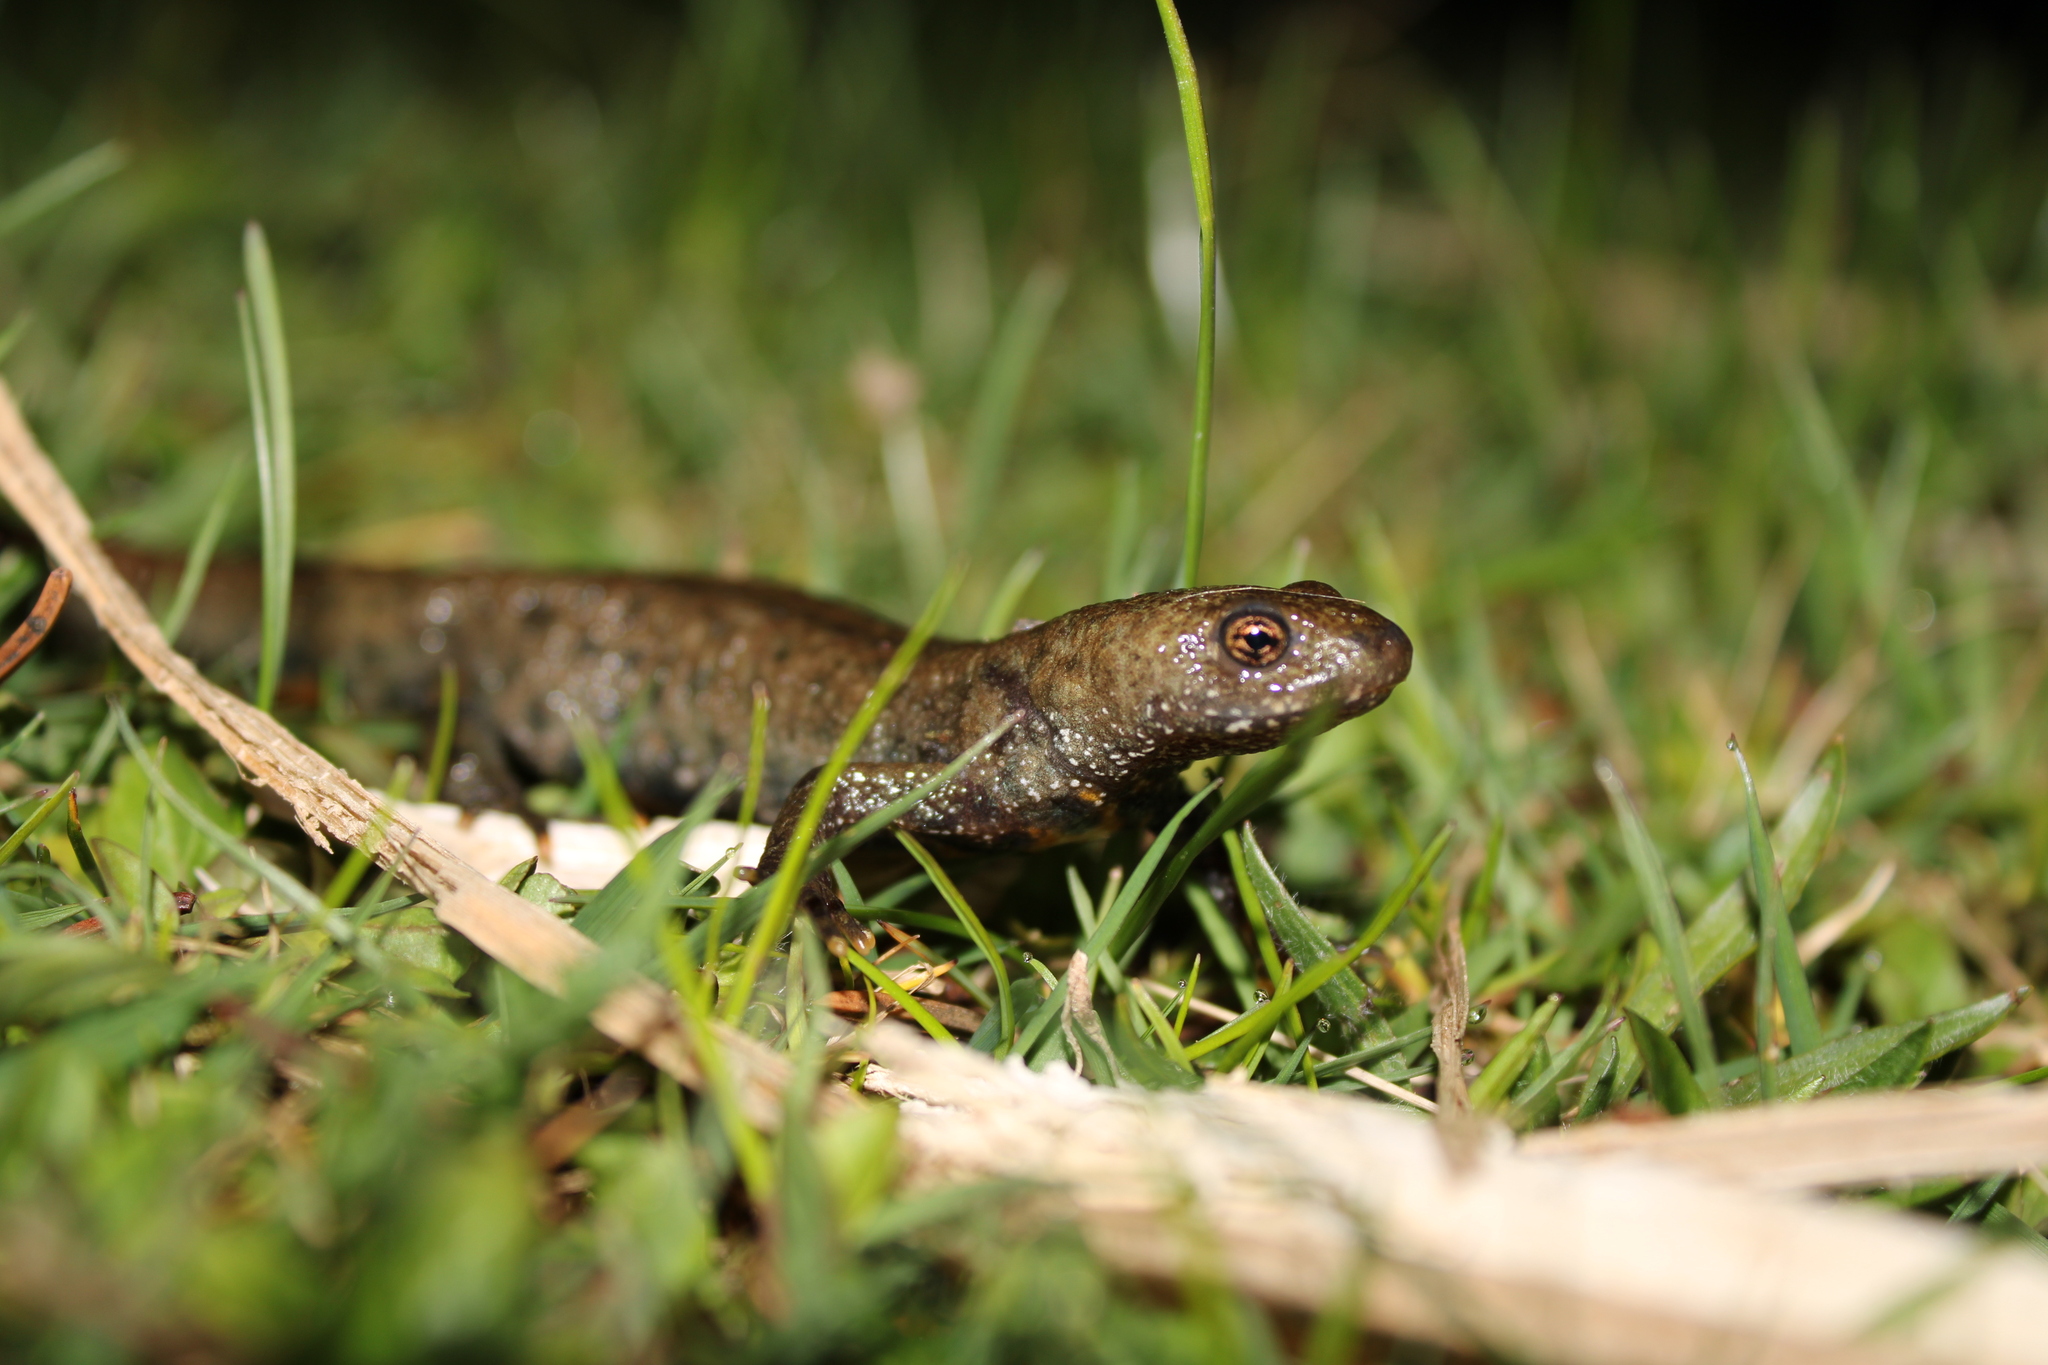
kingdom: Animalia
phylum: Chordata
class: Amphibia
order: Caudata
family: Salamandridae
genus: Triturus
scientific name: Triturus carnifex
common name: Italian crested newt
